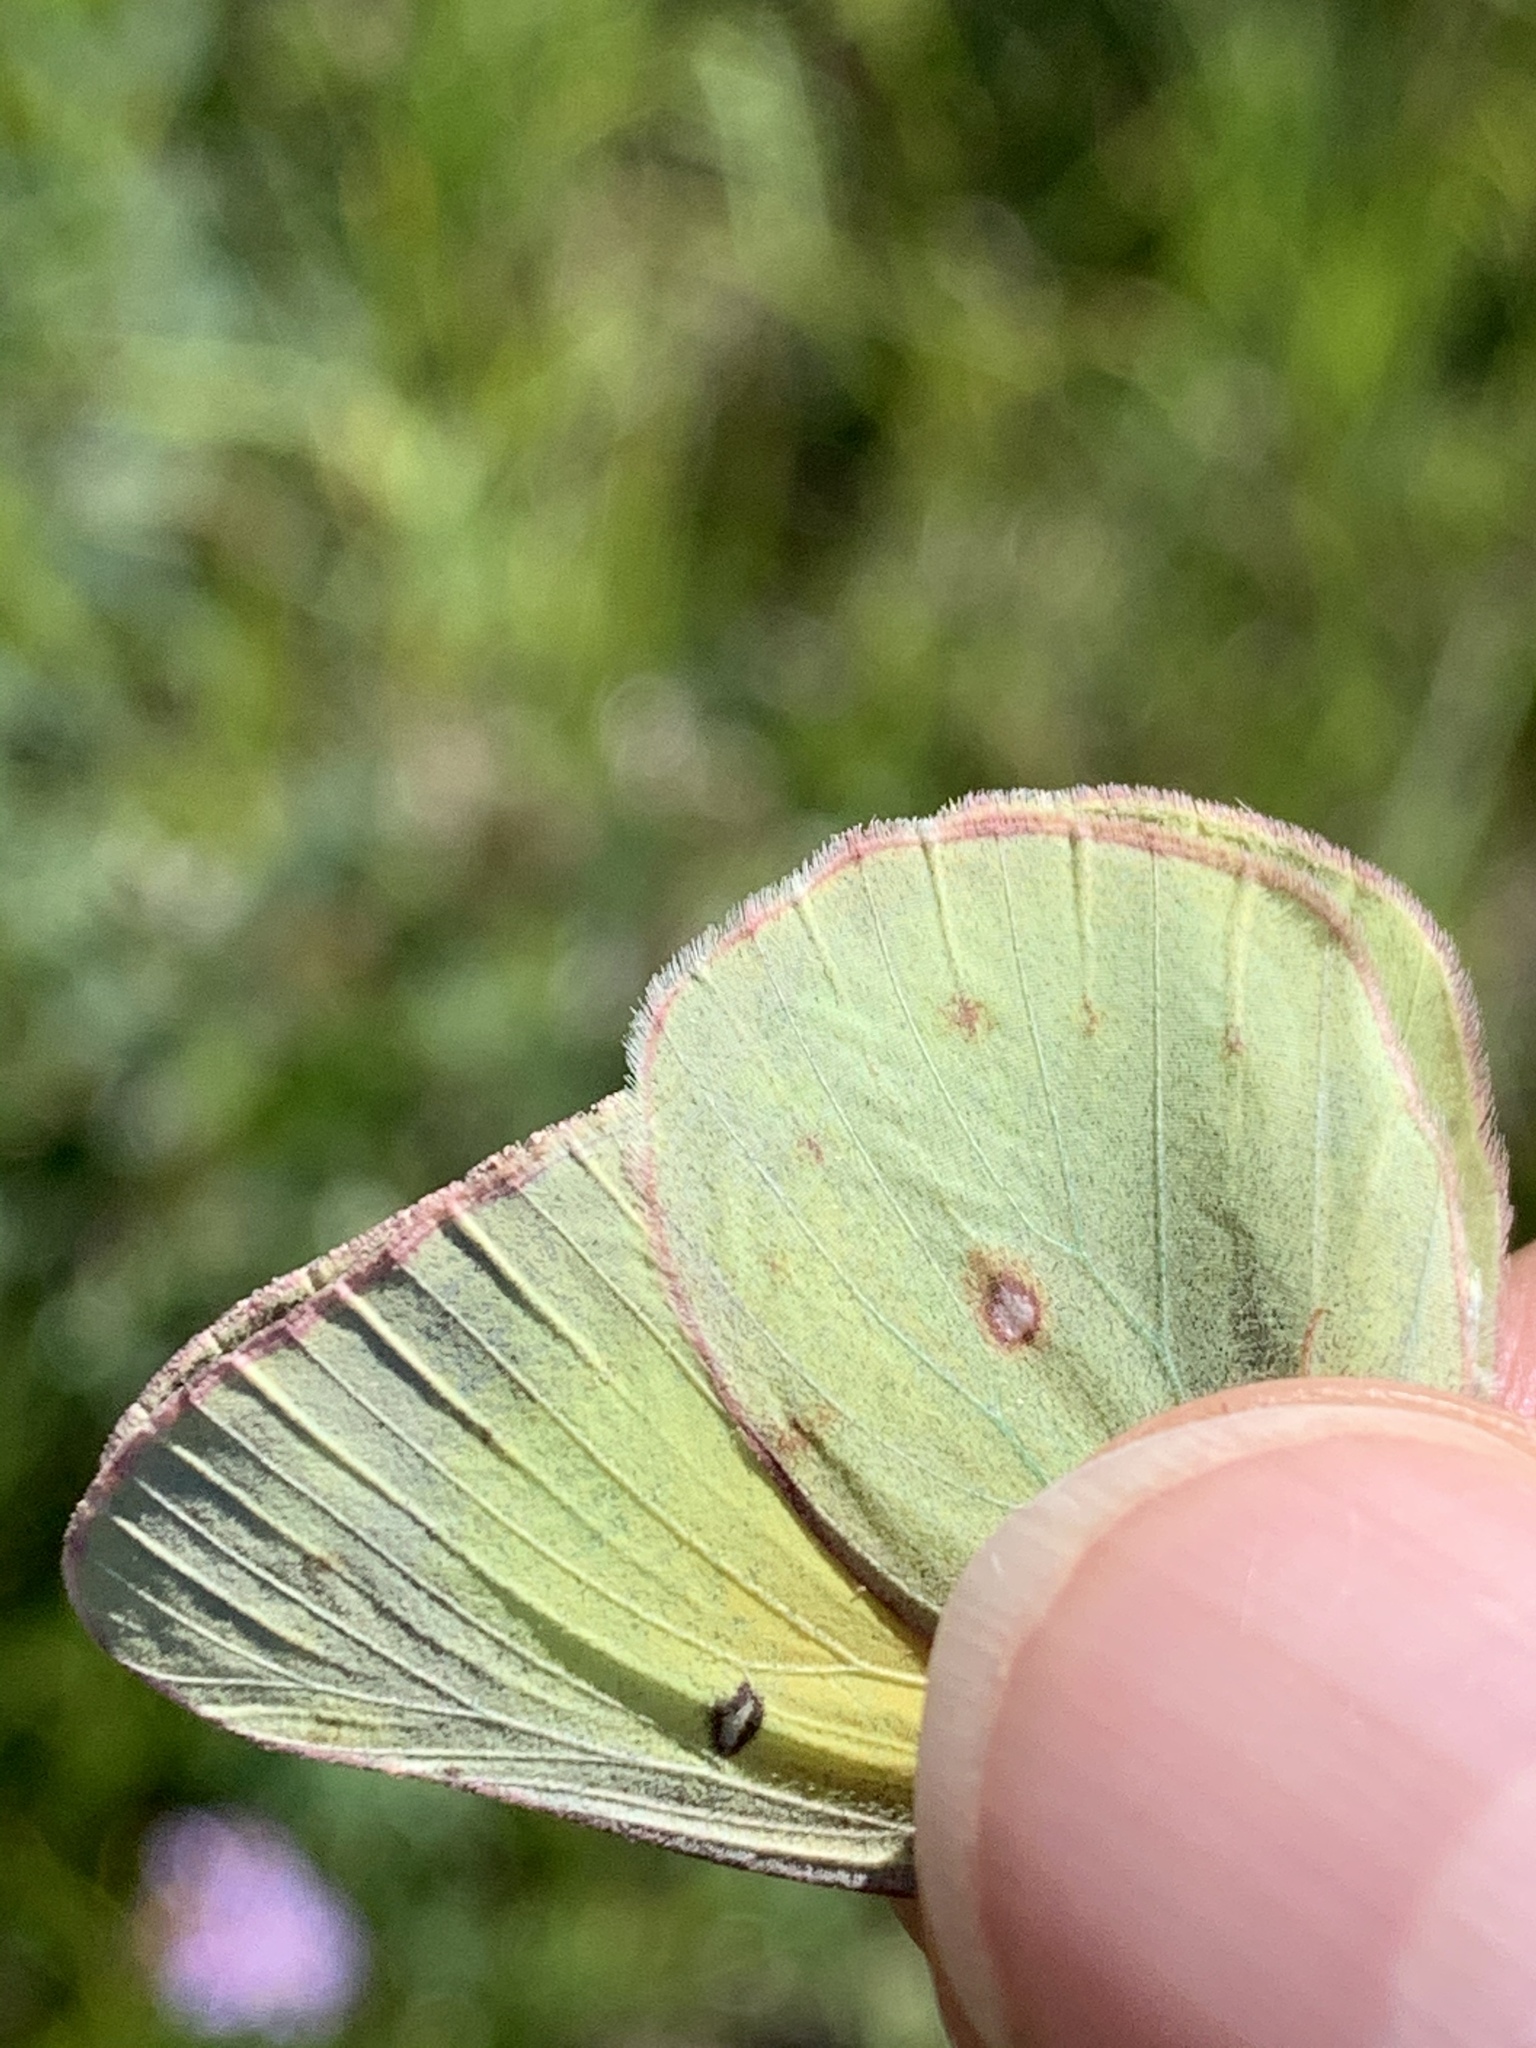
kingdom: Animalia
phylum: Arthropoda
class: Insecta
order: Lepidoptera
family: Pieridae
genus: Colias
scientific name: Colias philodice
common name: Clouded sulphur
